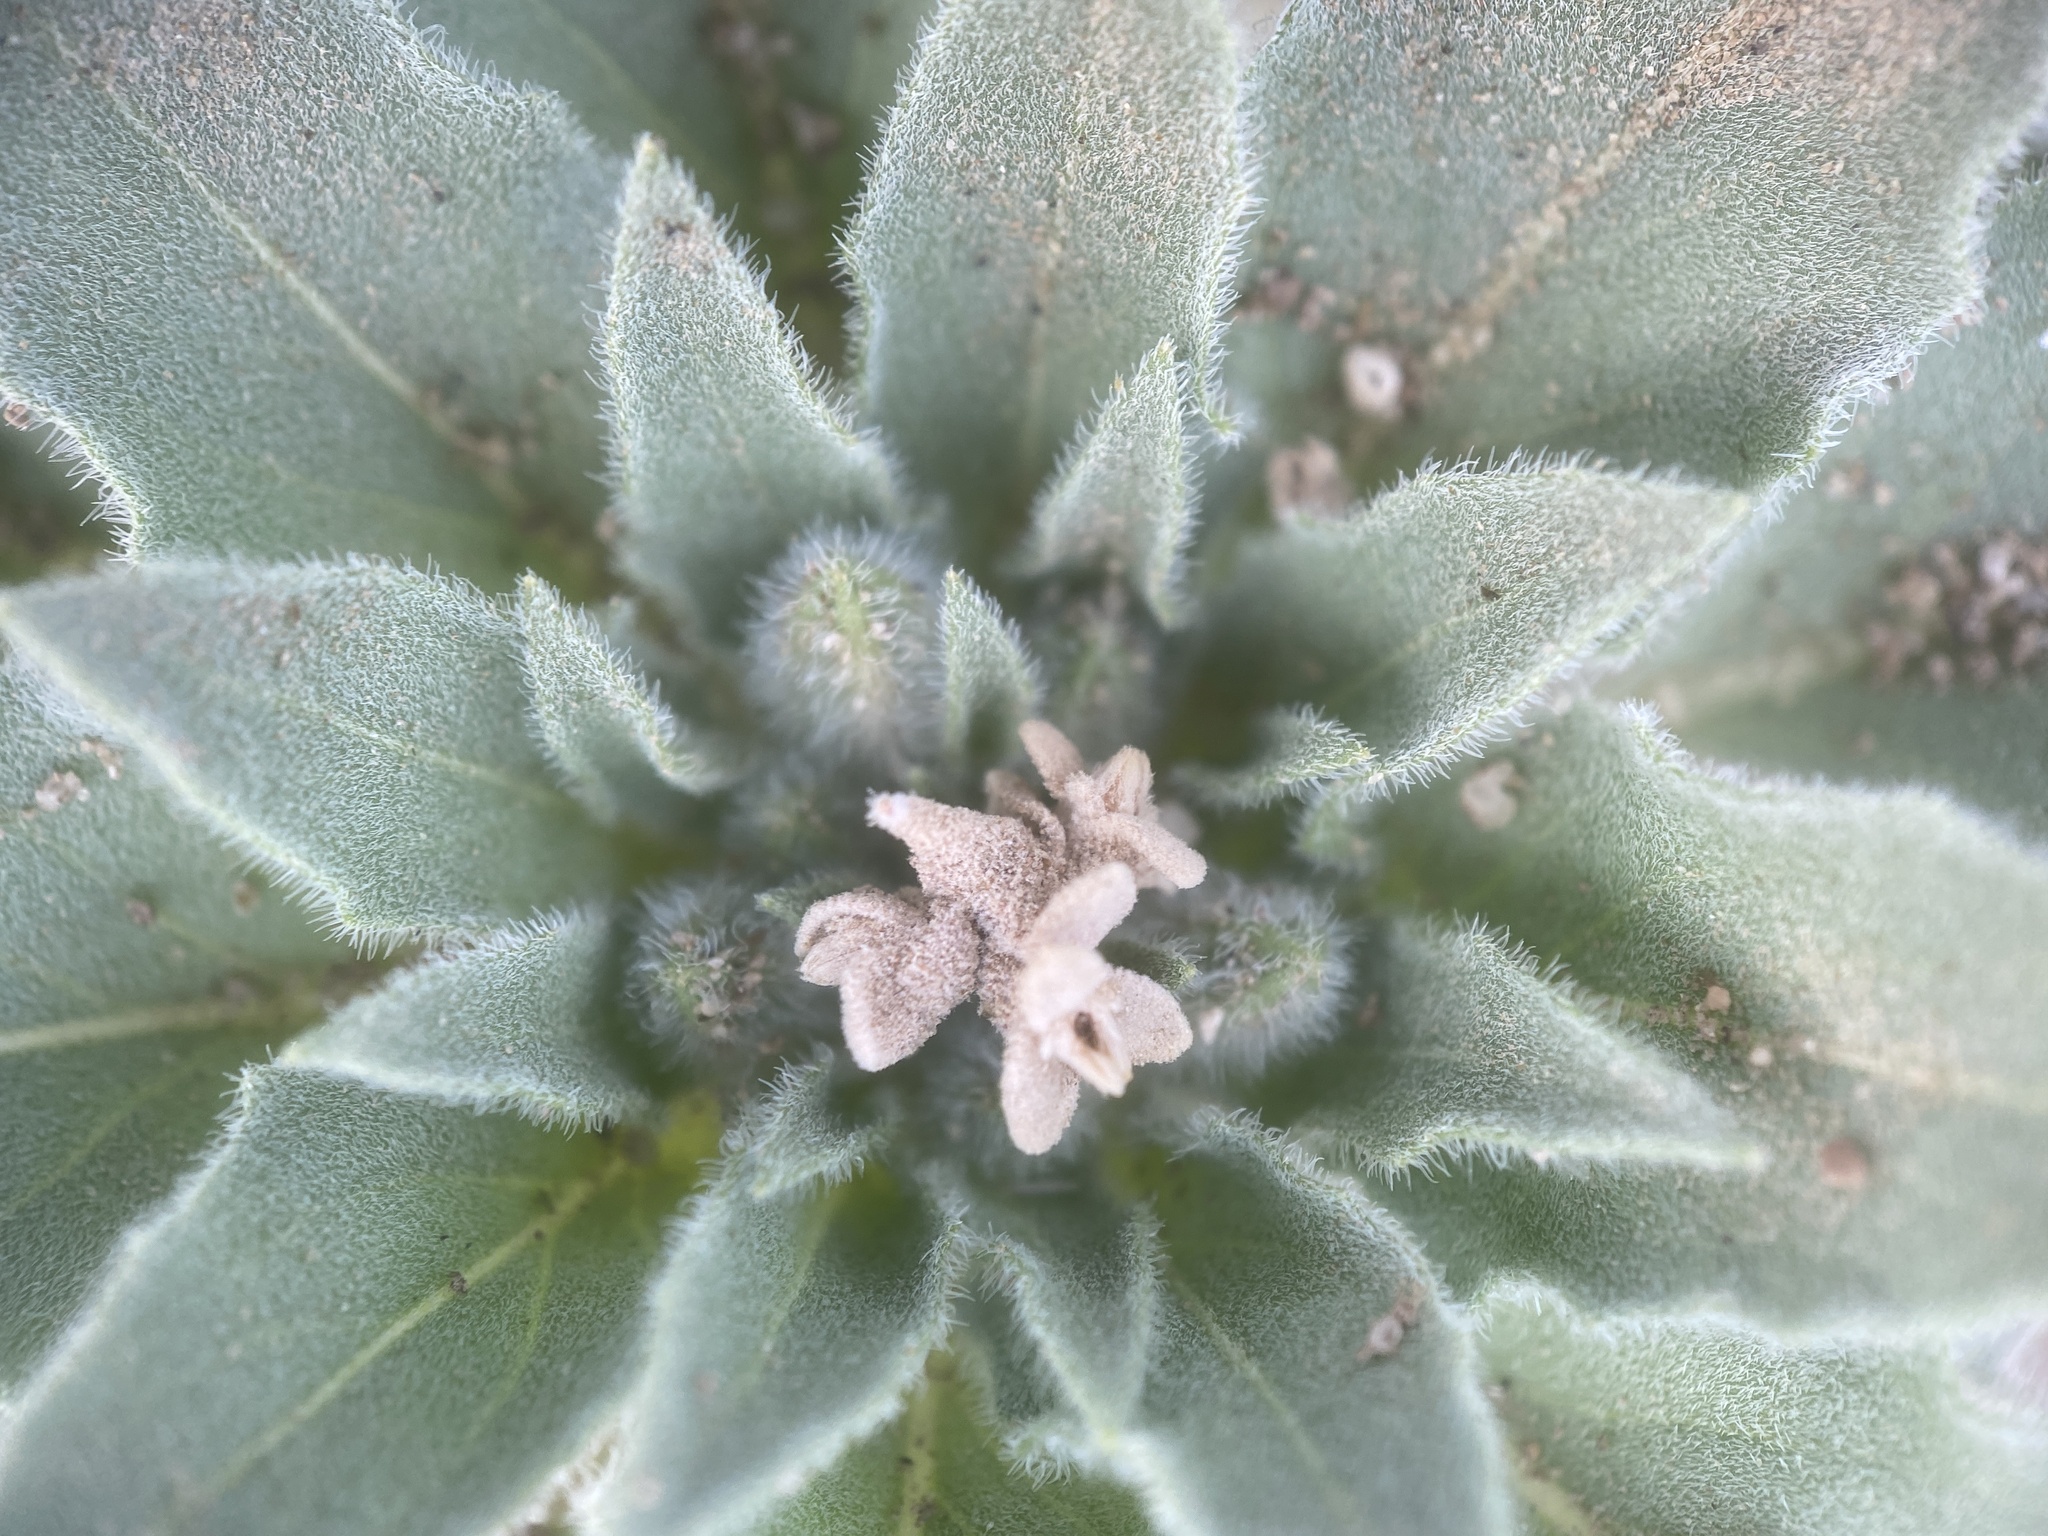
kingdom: Plantae
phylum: Tracheophyta
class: Magnoliopsida
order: Myrtales
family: Onagraceae
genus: Oenothera
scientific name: Oenothera deltoides
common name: Basket evening-primrose
